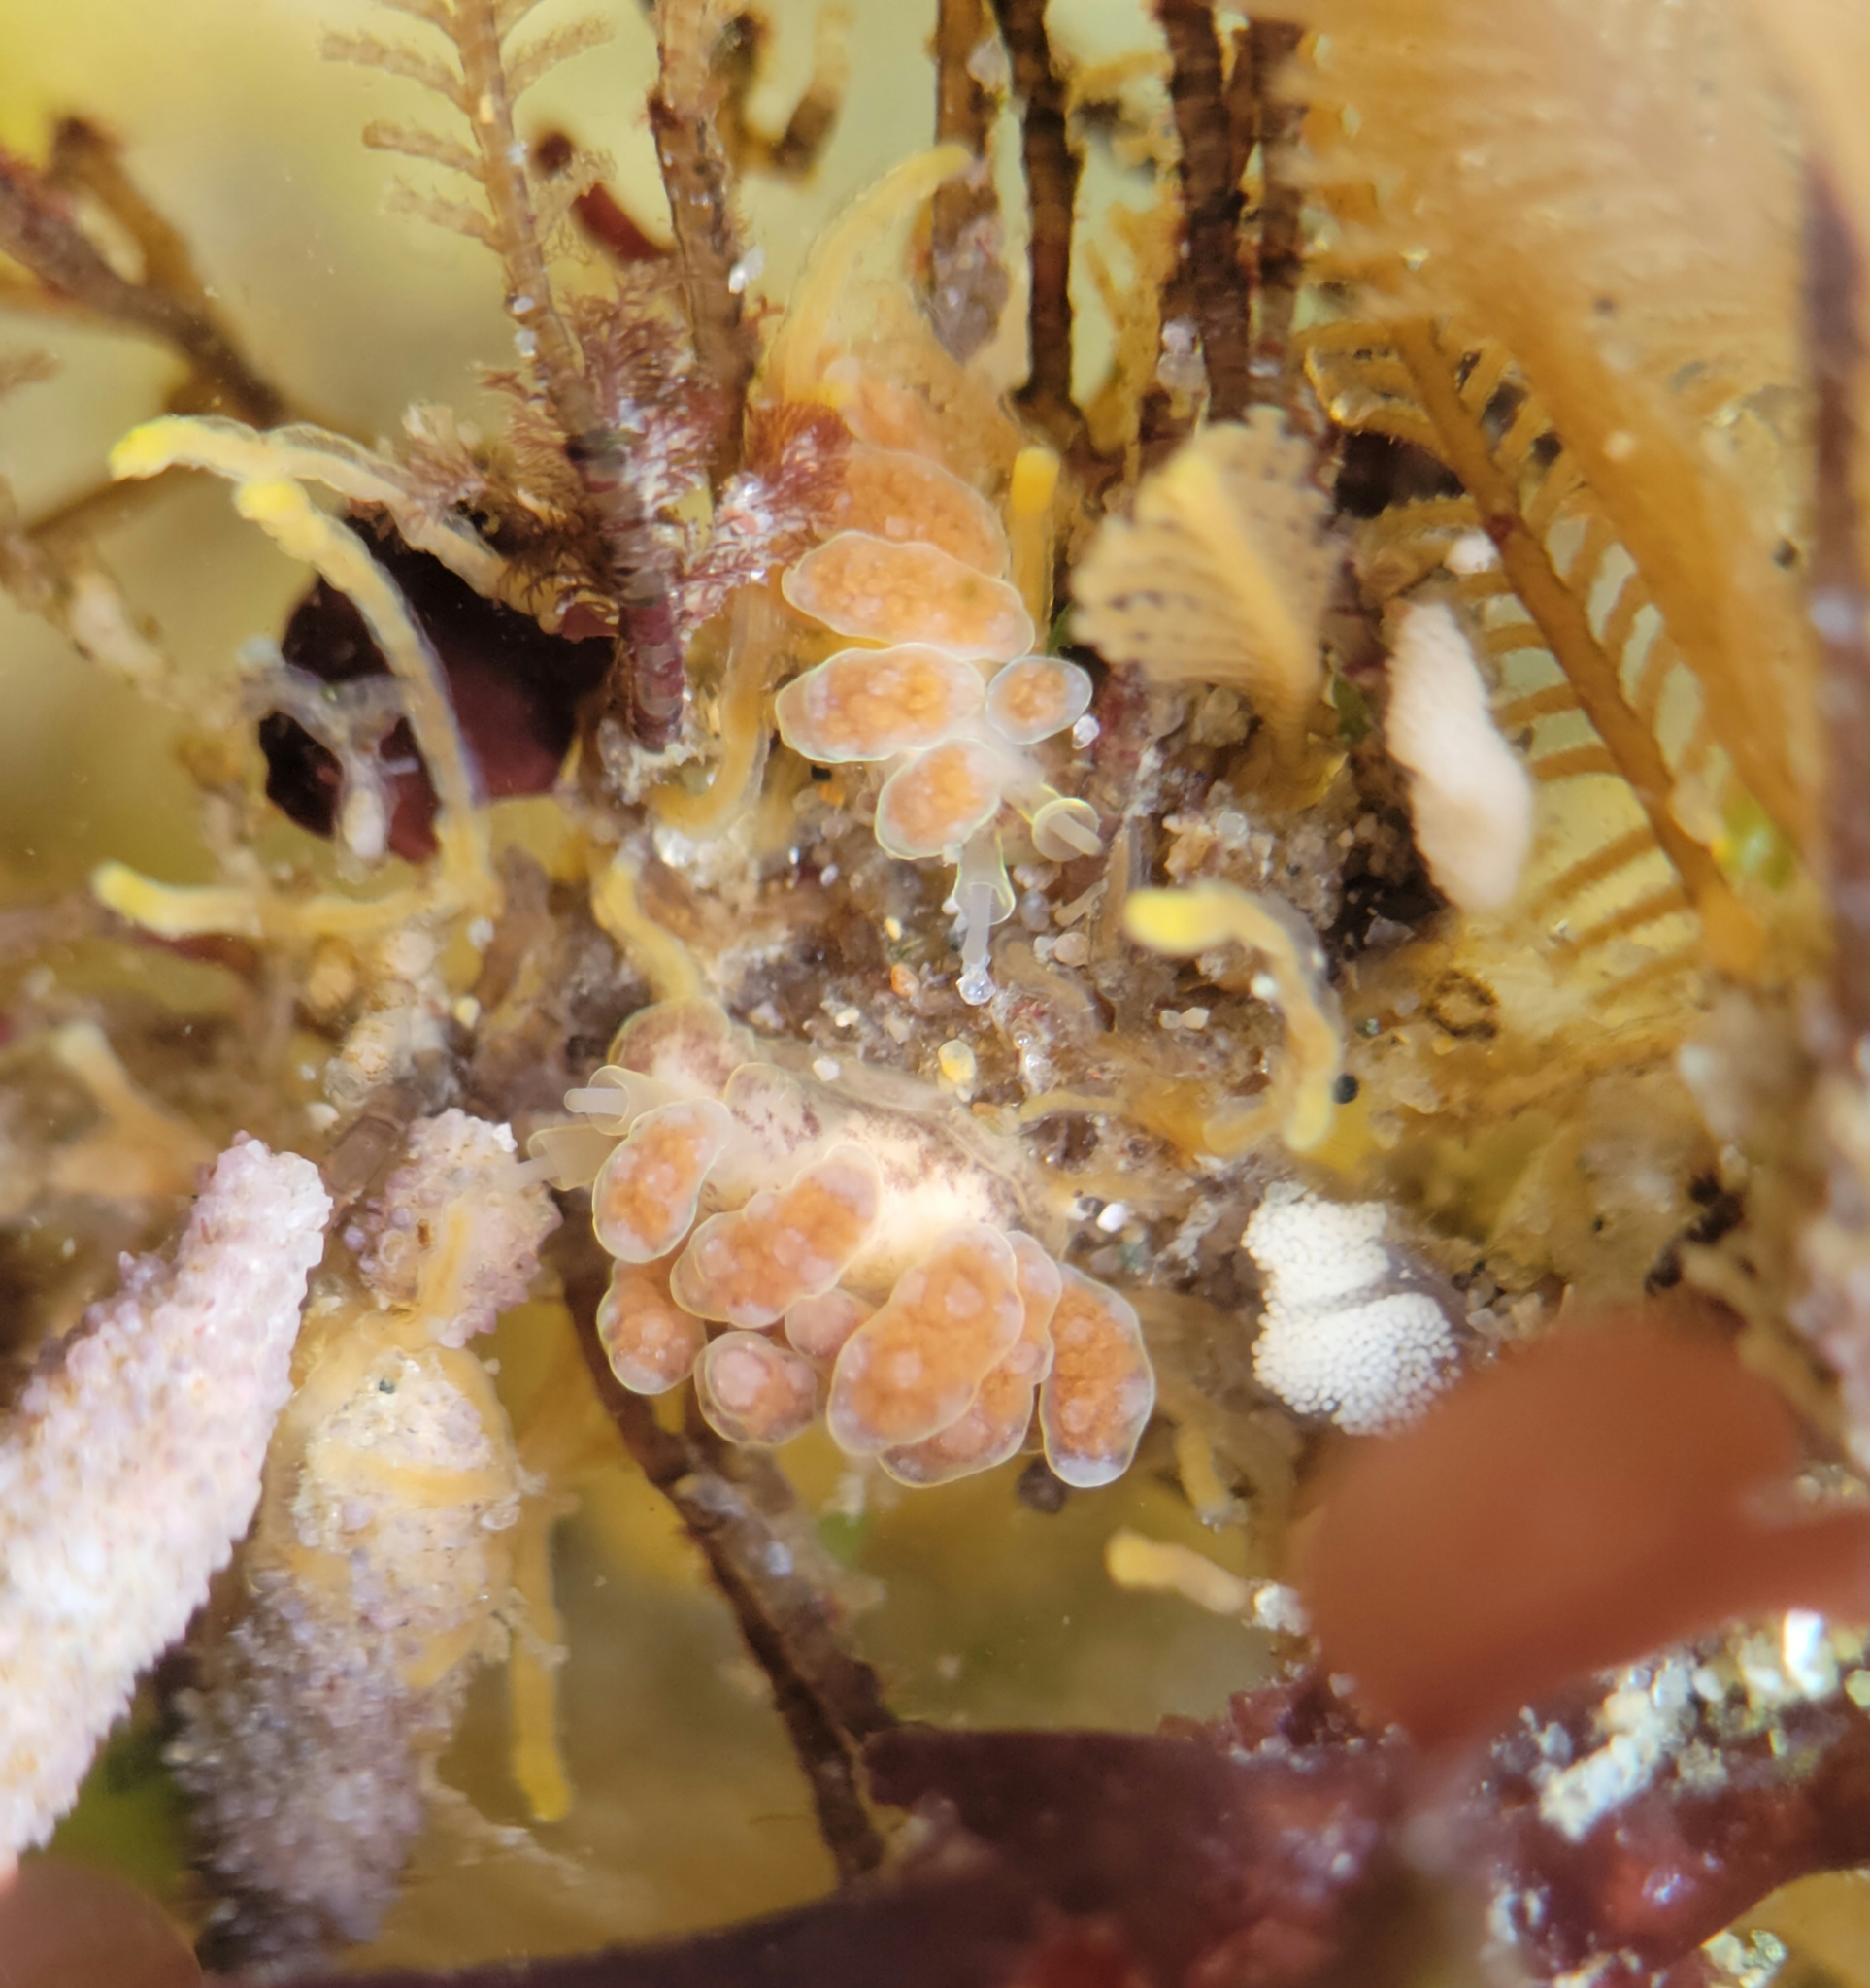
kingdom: Animalia
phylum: Mollusca
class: Gastropoda
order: Nudibranchia
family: Dotidae
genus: Doto
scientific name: Doto columbiana
